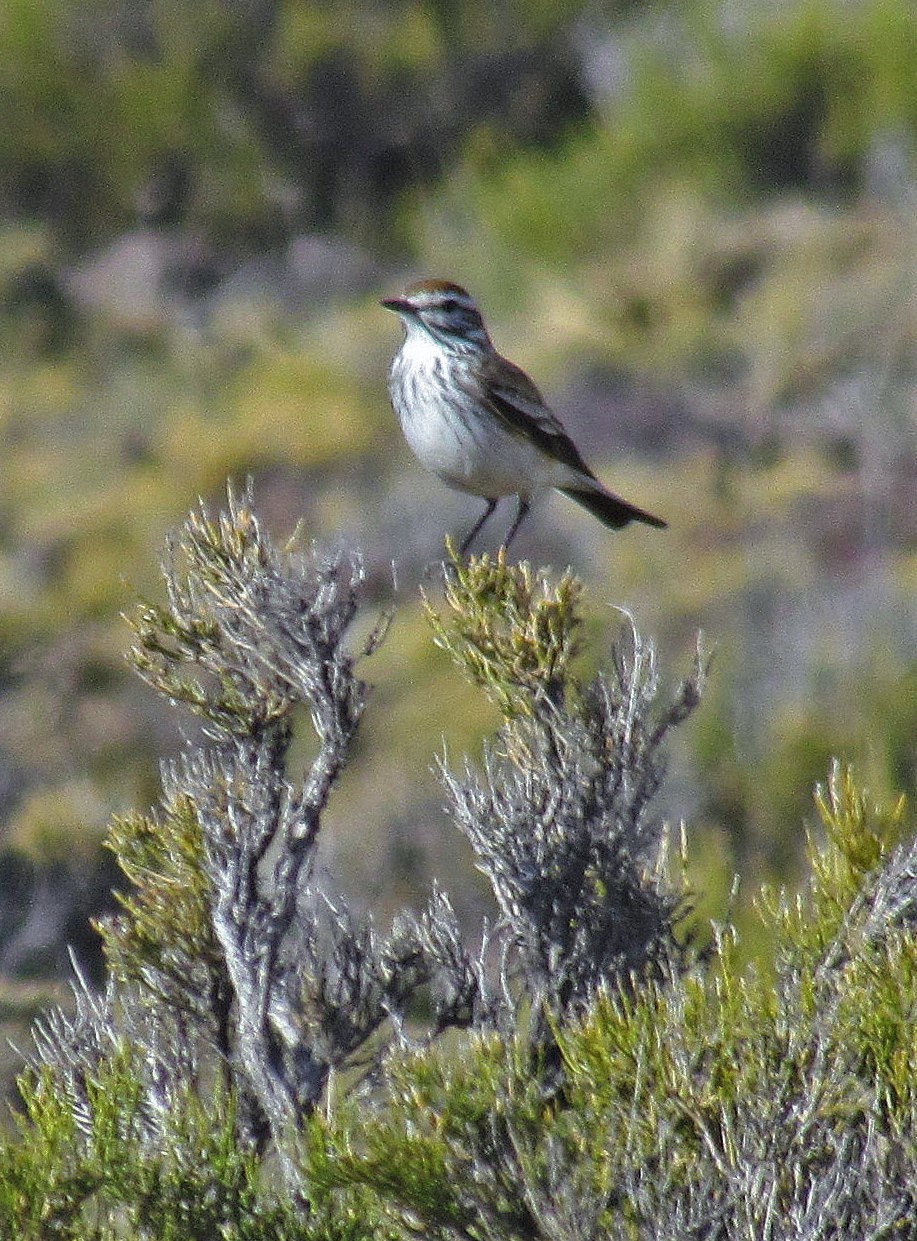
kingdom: Animalia
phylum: Chordata
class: Aves
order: Passeriformes
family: Tyrannidae
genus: Xolmis
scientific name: Xolmis rubetra
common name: Rusty-backed monjita
